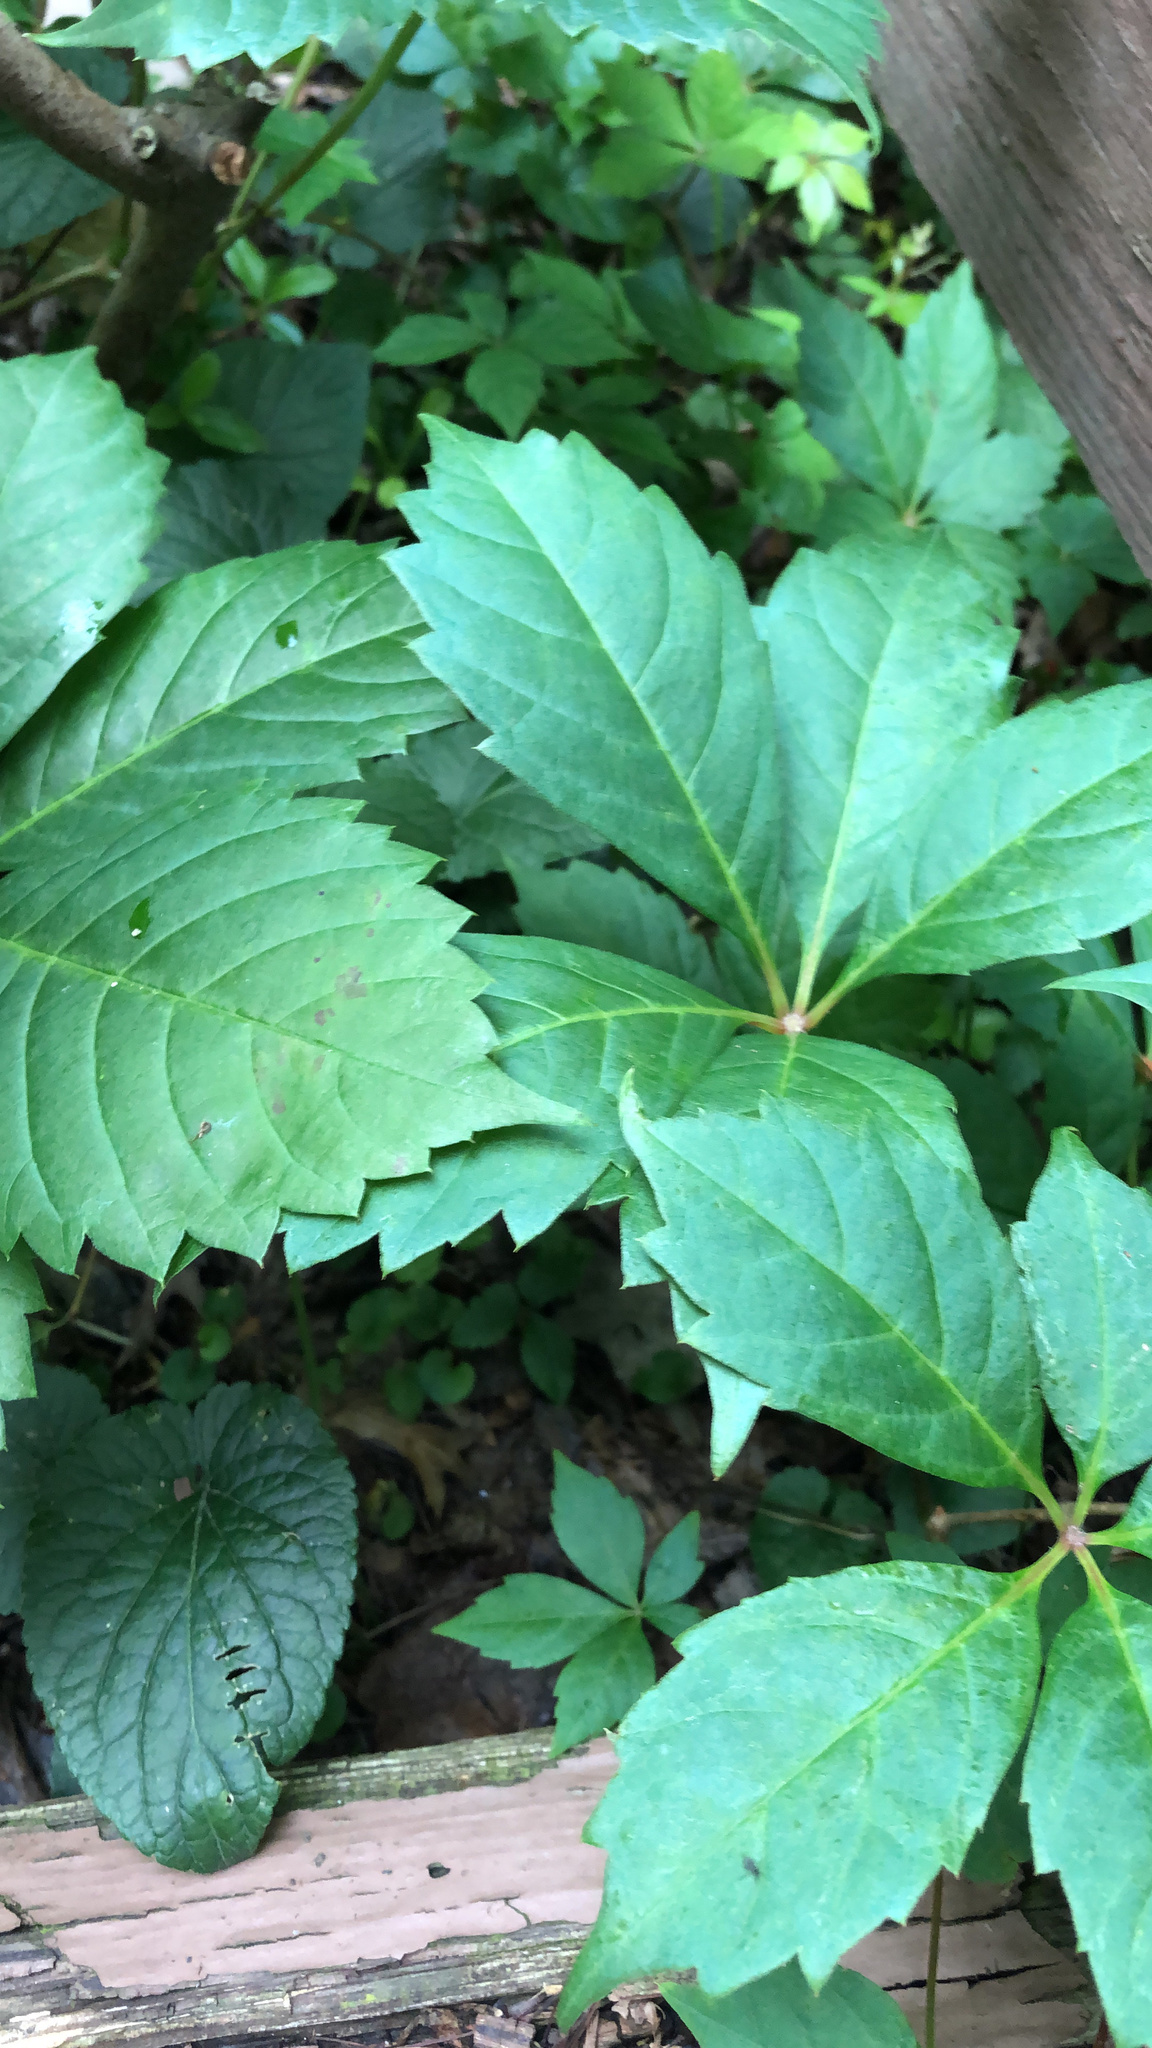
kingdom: Plantae
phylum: Tracheophyta
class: Magnoliopsida
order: Vitales
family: Vitaceae
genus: Parthenocissus
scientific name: Parthenocissus quinquefolia
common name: Virginia-creeper
